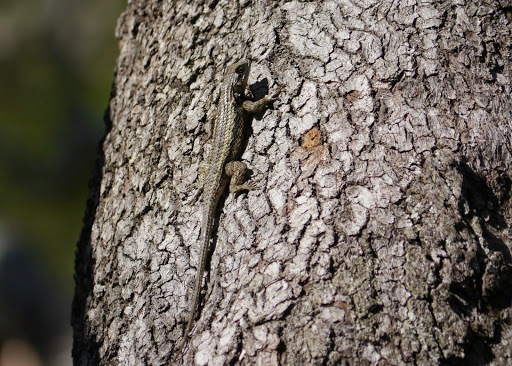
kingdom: Animalia
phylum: Chordata
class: Squamata
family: Phrynosomatidae
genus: Sceloporus
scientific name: Sceloporus olivaceus
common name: Texas spiny lizard
